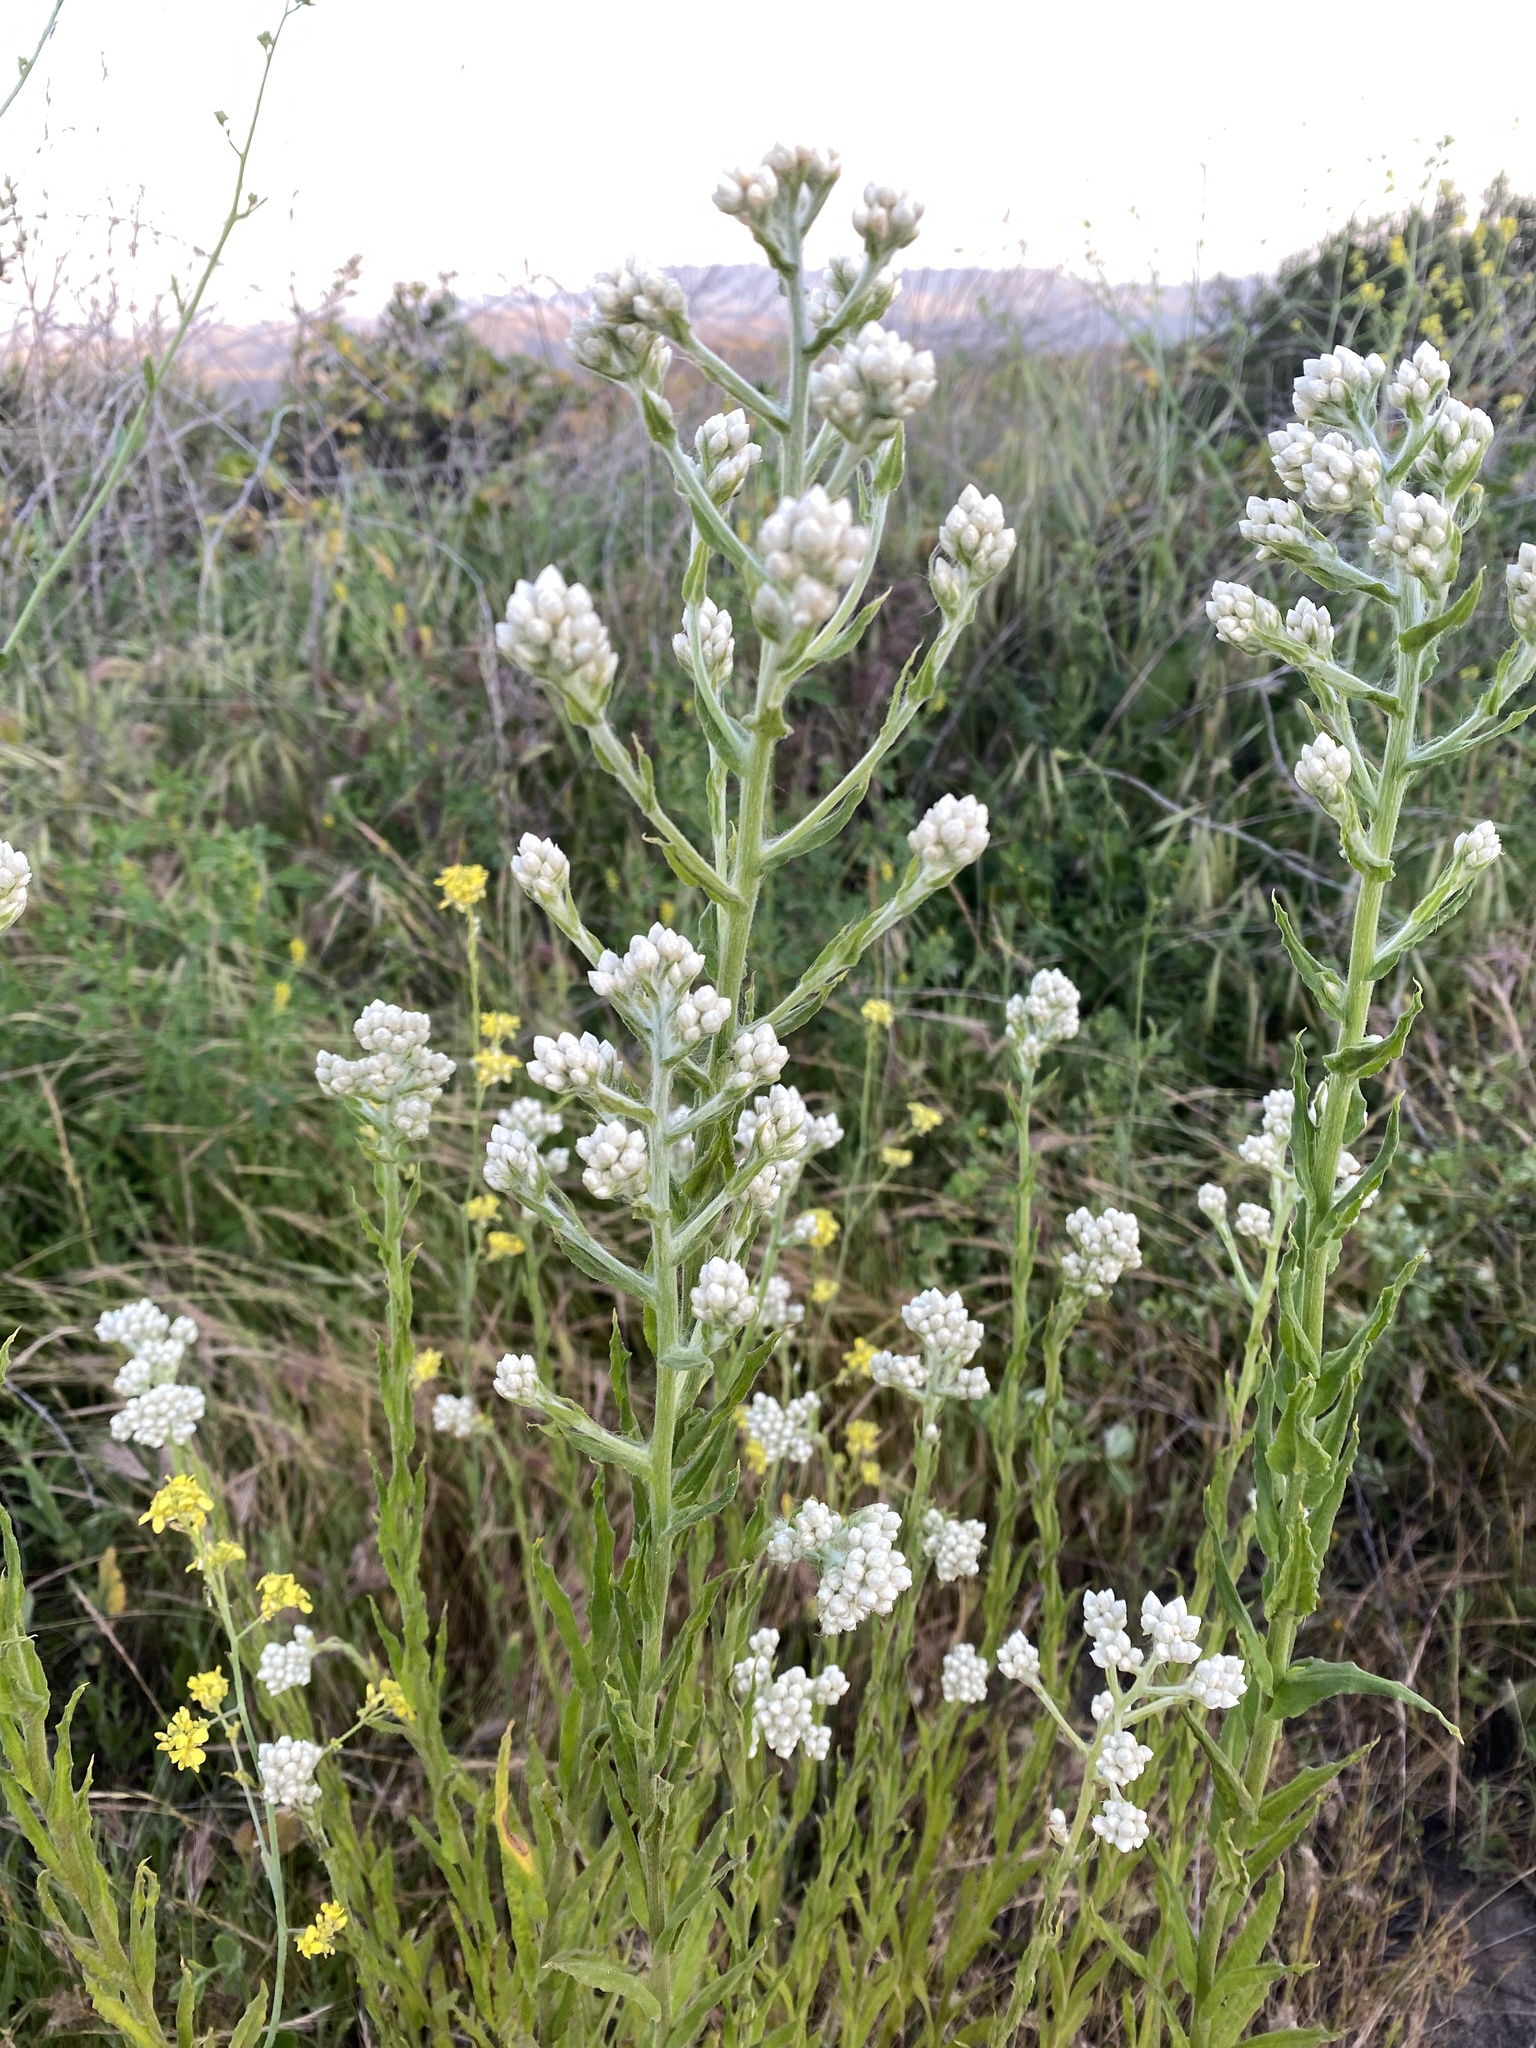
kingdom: Plantae
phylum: Tracheophyta
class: Magnoliopsida
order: Asterales
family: Asteraceae
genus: Pseudognaphalium
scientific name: Pseudognaphalium californicum
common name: California rabbit-tobacco
